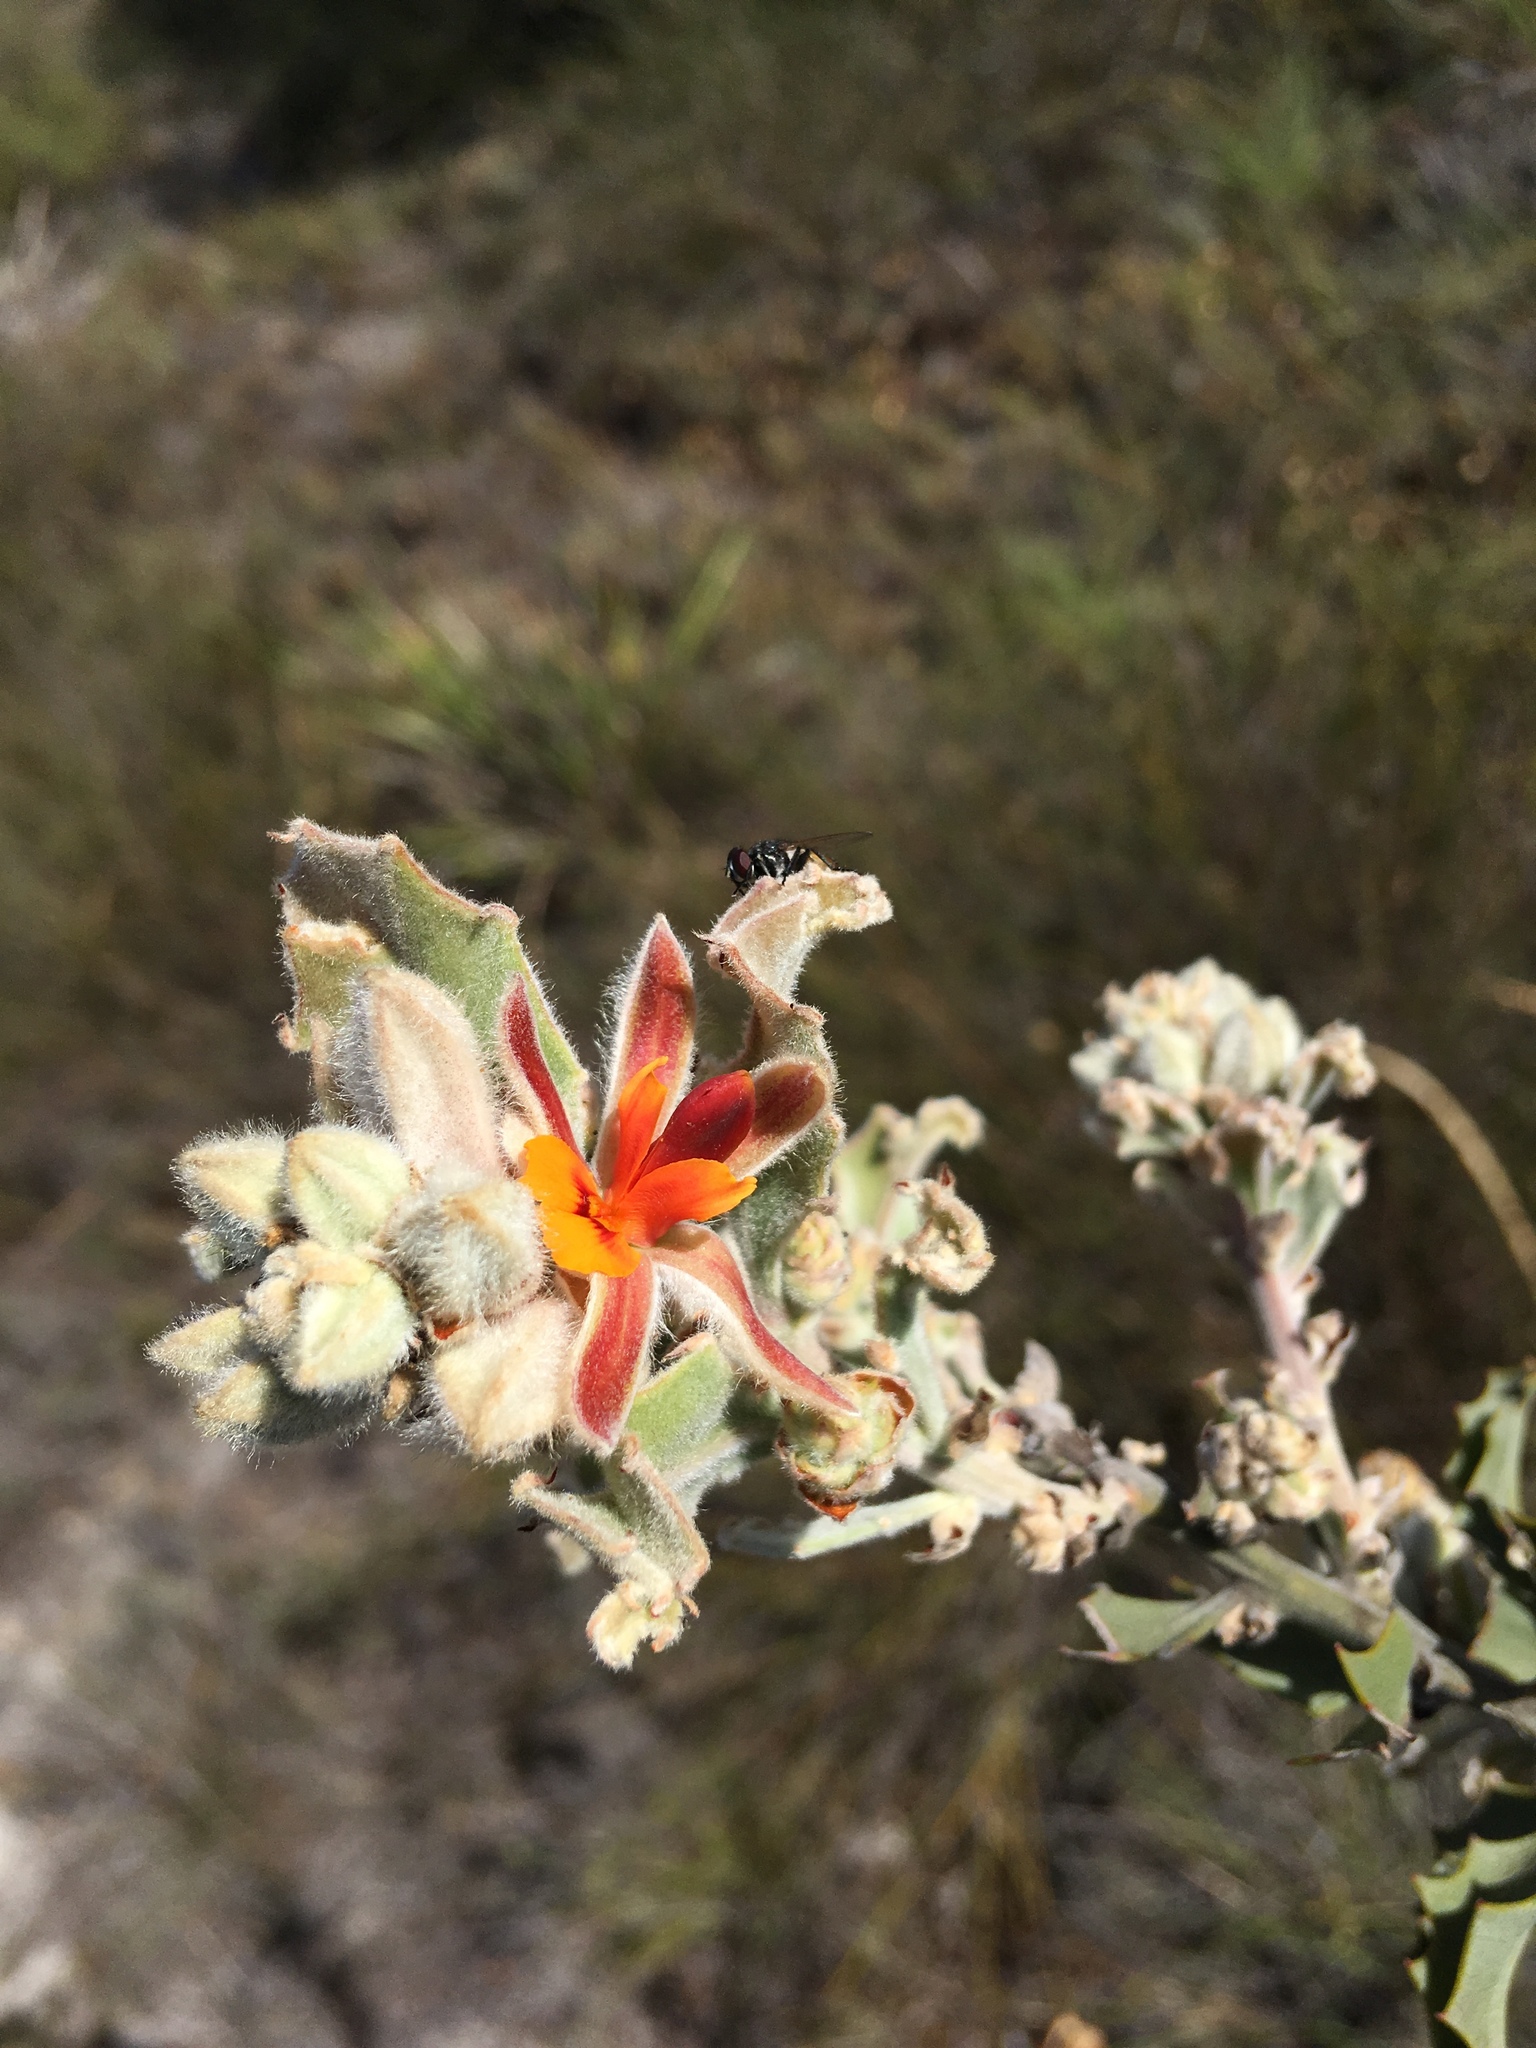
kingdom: Plantae
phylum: Tracheophyta
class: Magnoliopsida
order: Fabales
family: Fabaceae
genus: Jacksonia
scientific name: Jacksonia floribunda
